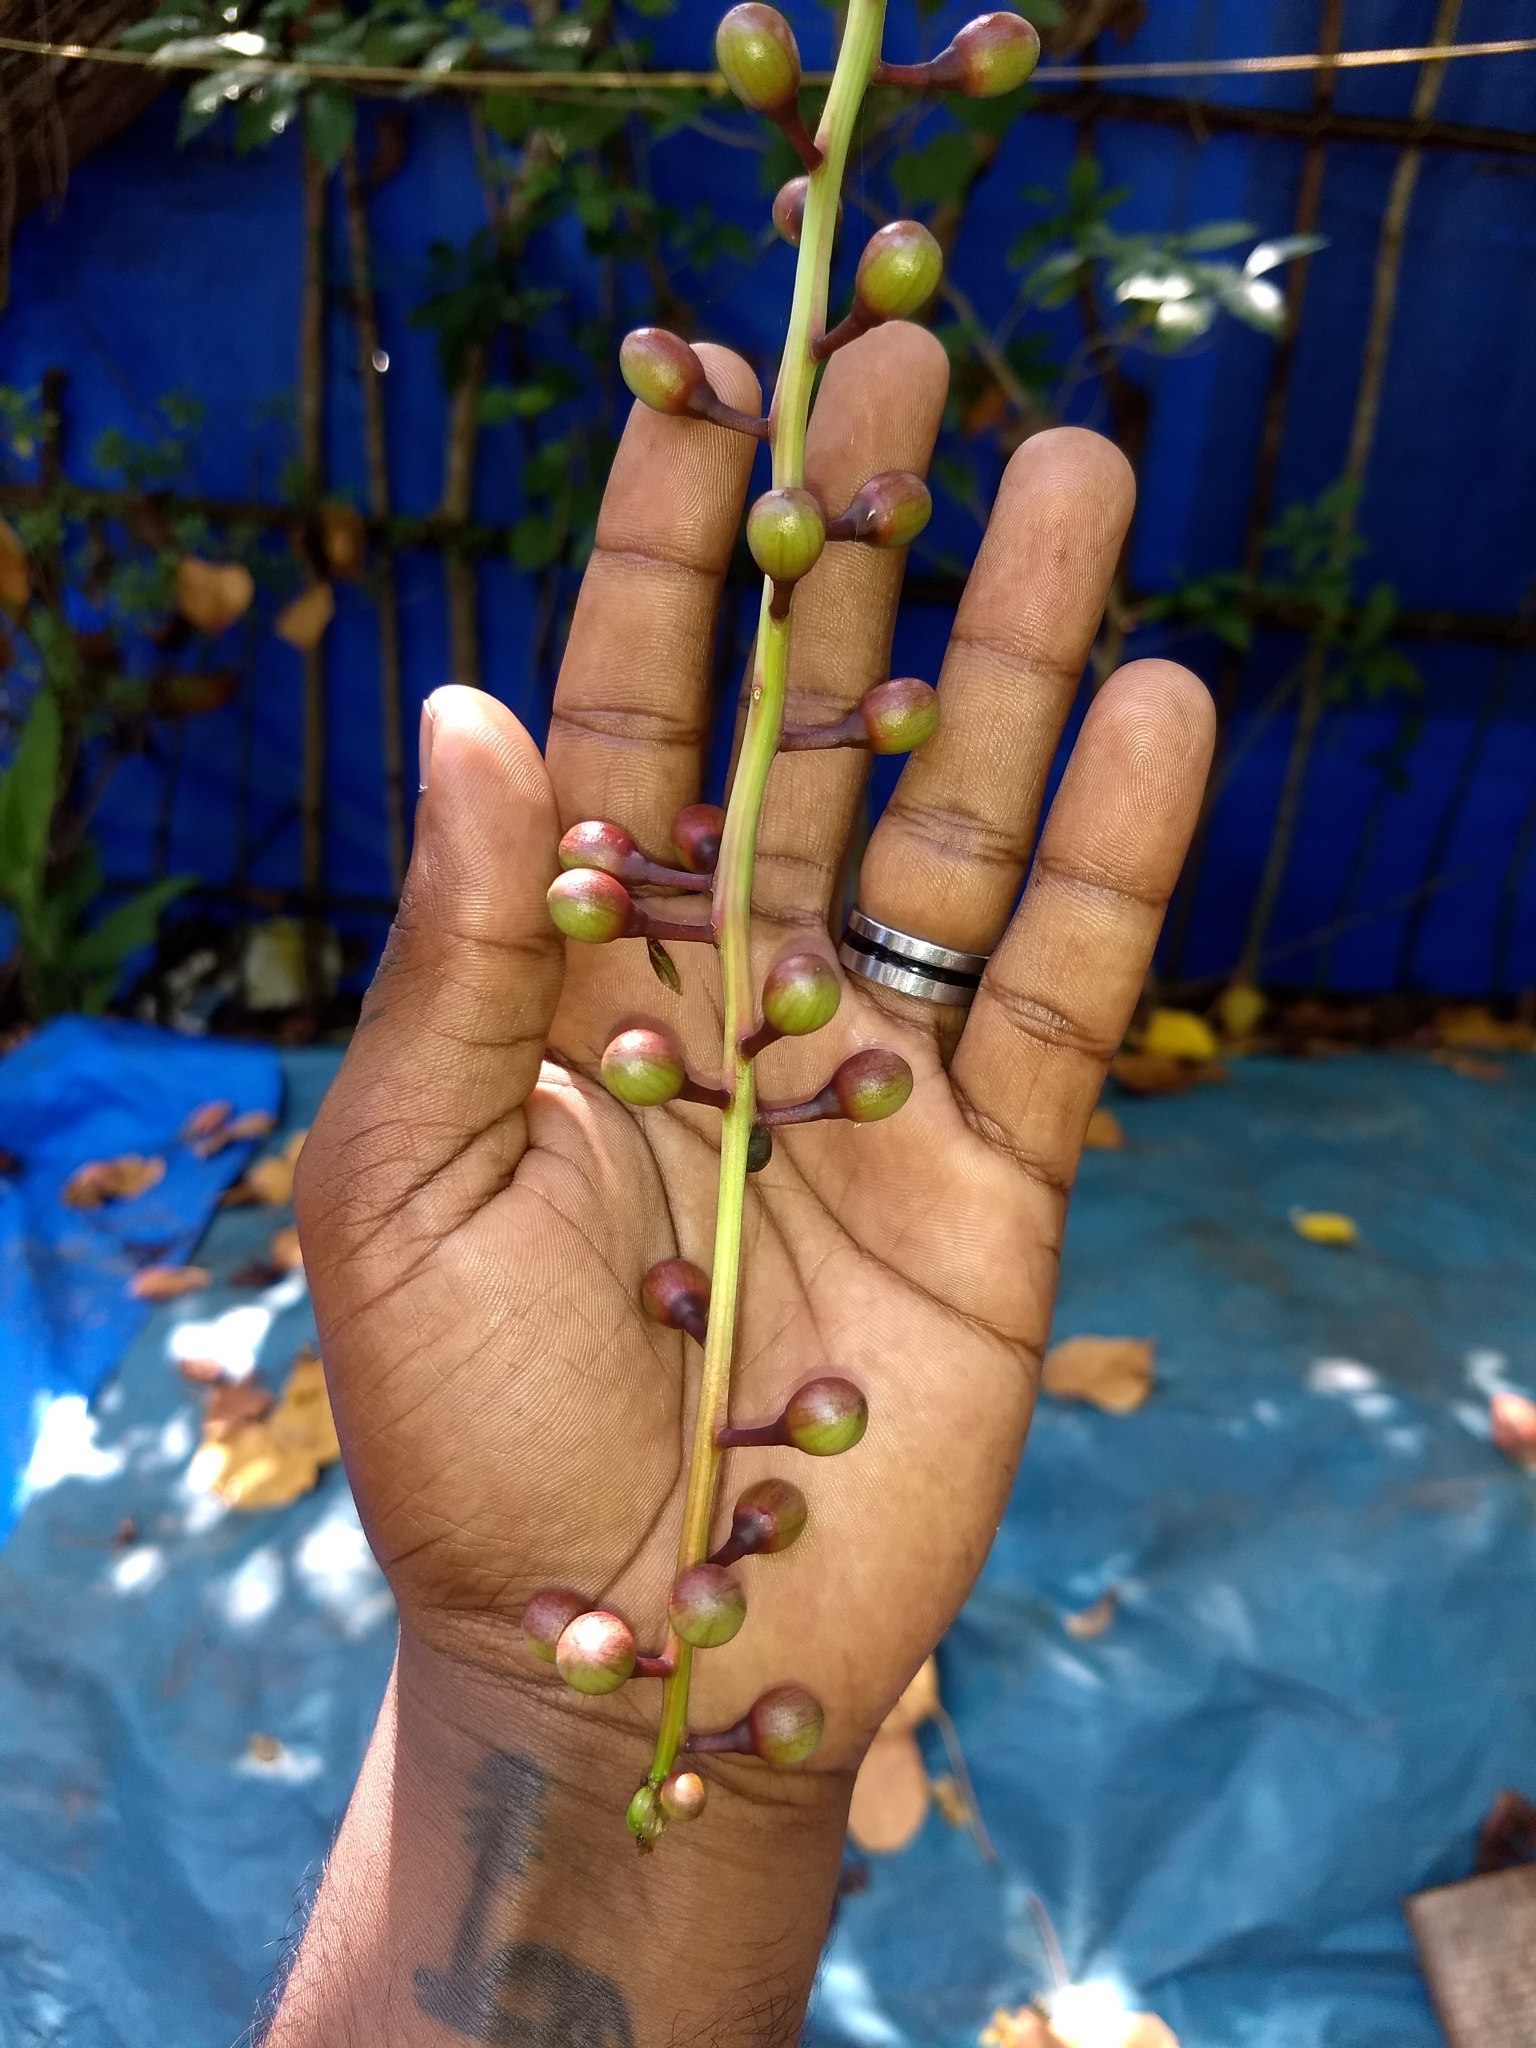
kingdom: Plantae
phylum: Tracheophyta
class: Magnoliopsida
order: Ericales
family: Lecythidaceae
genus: Barringtonia
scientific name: Barringtonia racemosa
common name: Brackwater mangrove
